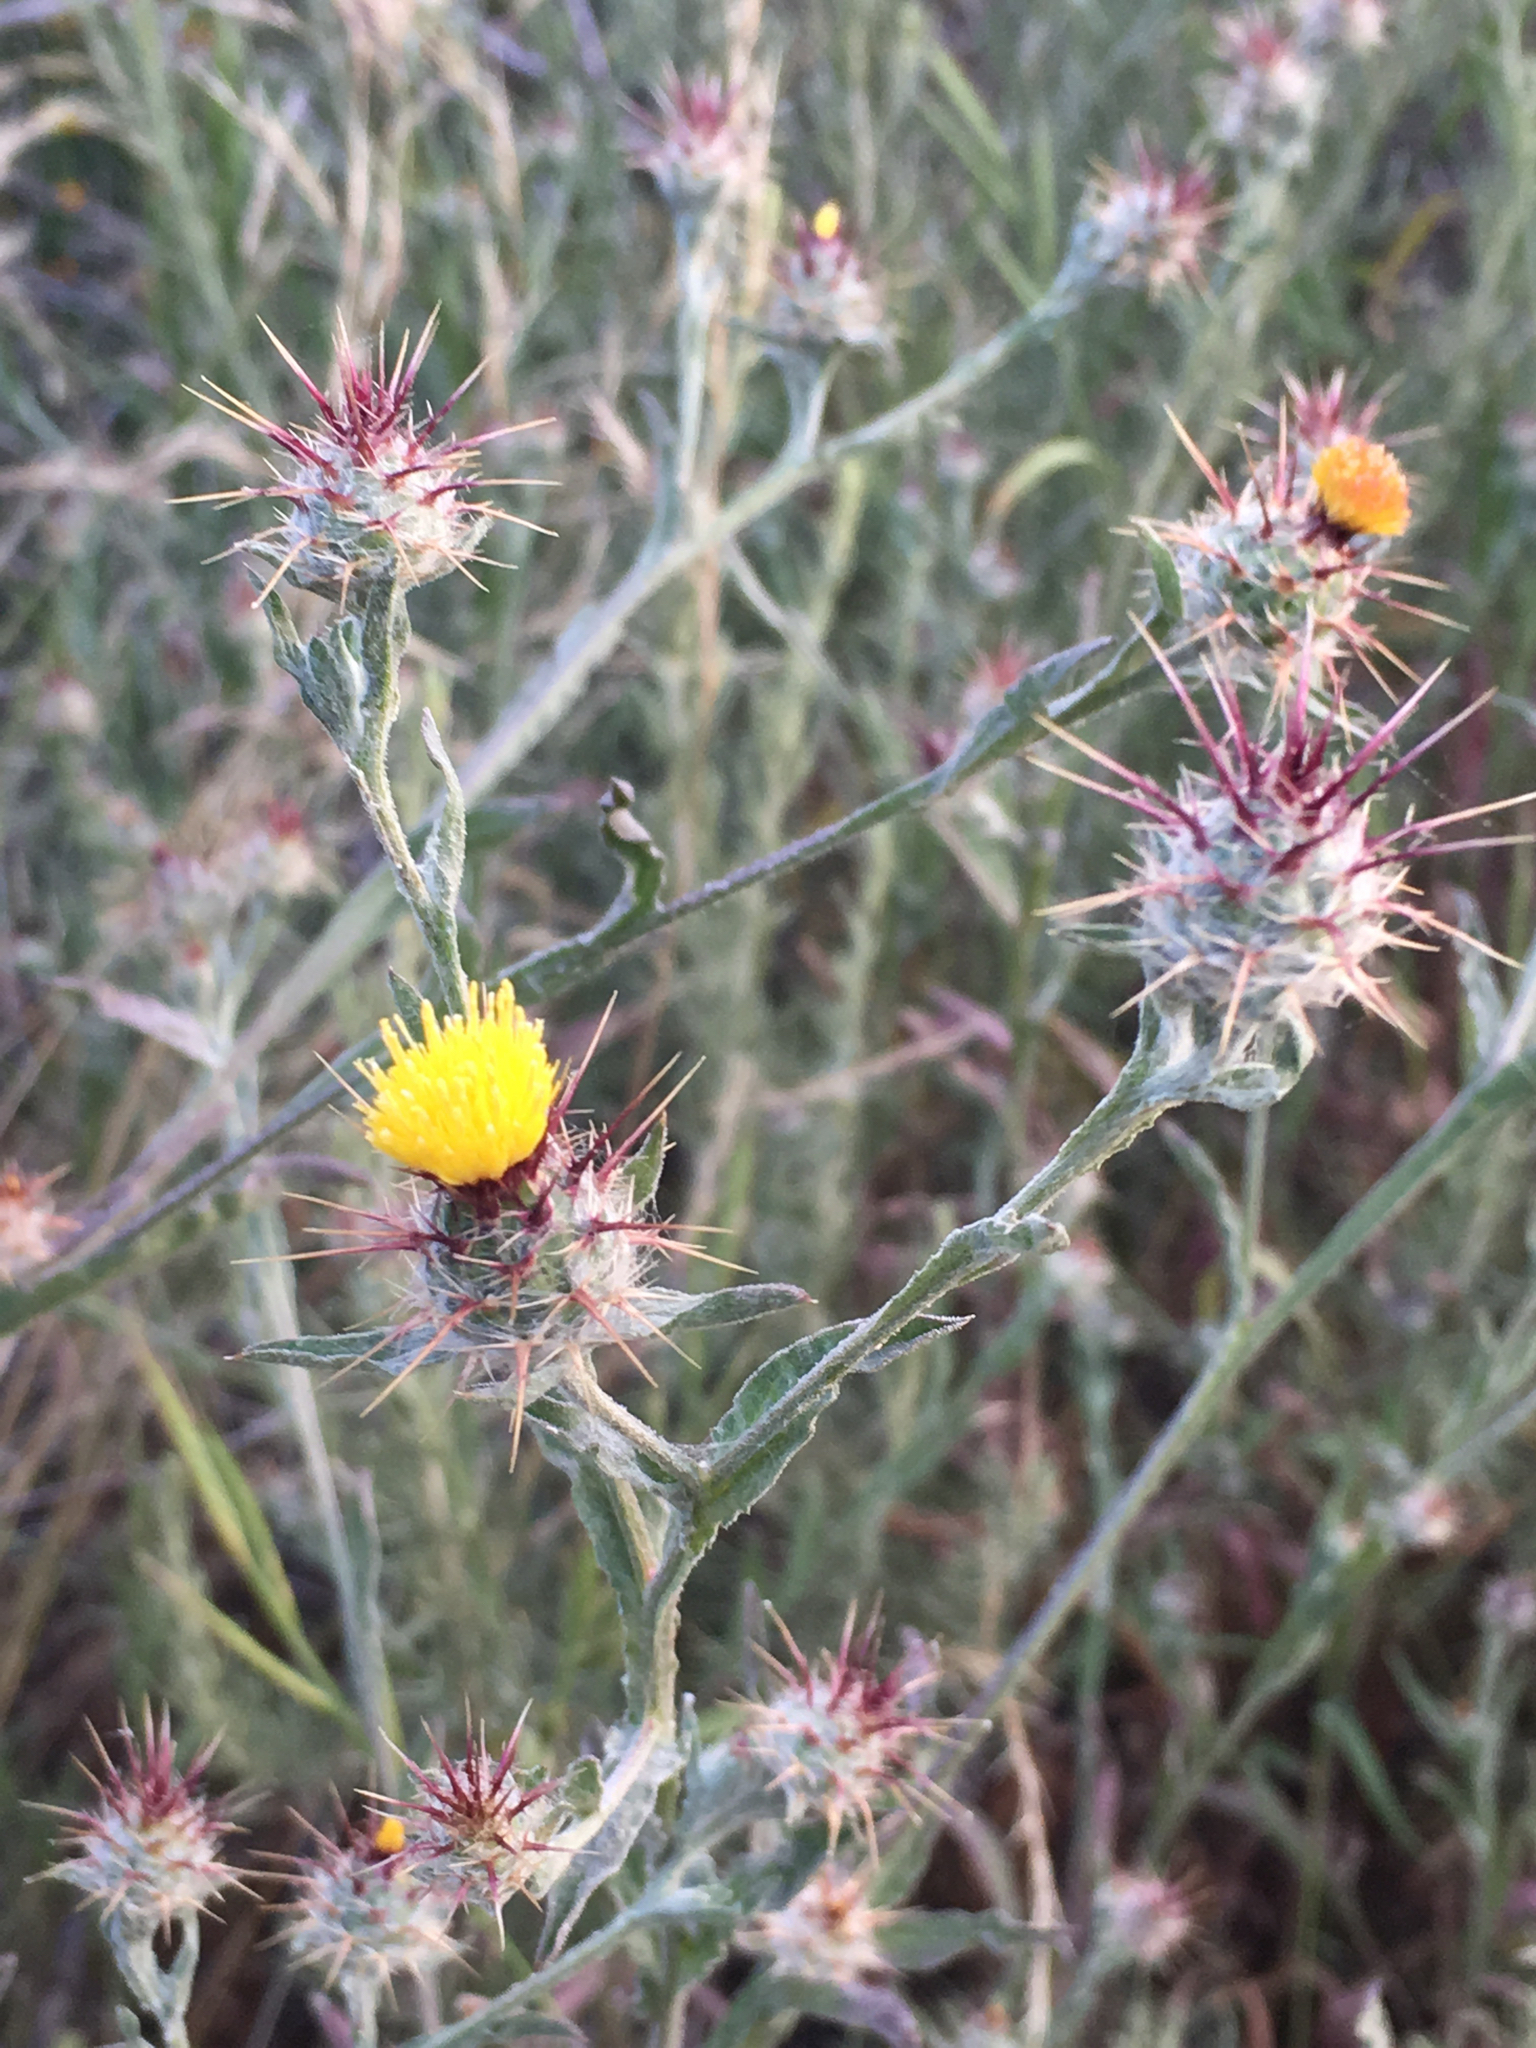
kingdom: Plantae
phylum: Tracheophyta
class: Magnoliopsida
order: Asterales
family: Asteraceae
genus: Centaurea
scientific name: Centaurea melitensis
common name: Maltese star-thistle
